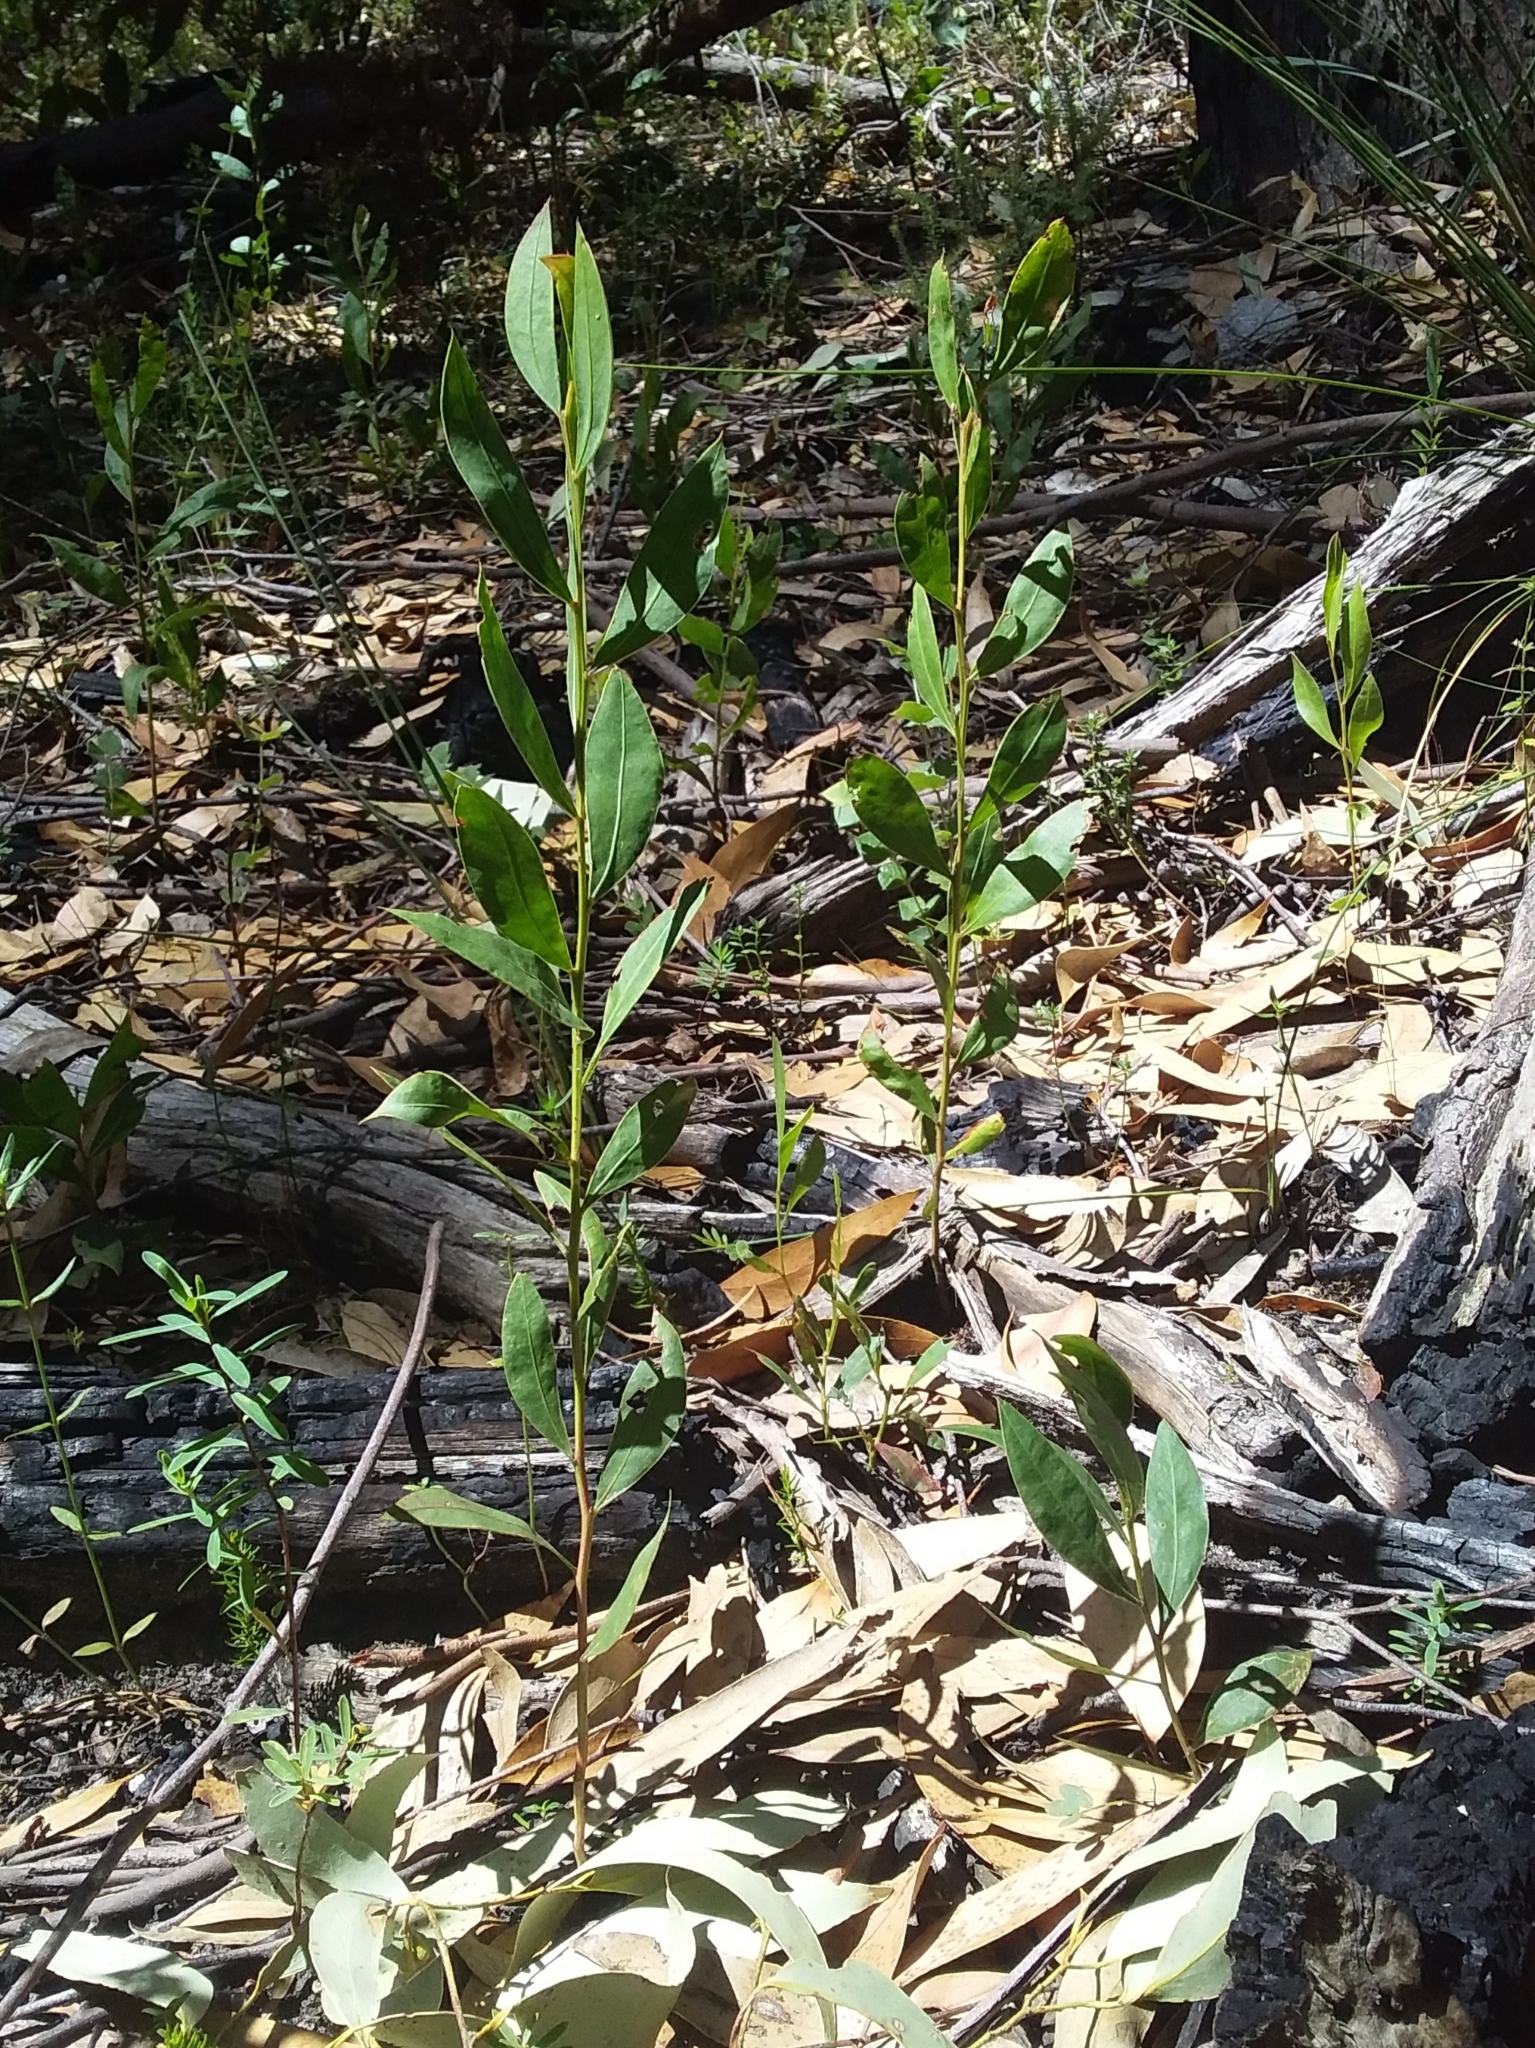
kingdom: Plantae
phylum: Tracheophyta
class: Magnoliopsida
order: Fabales
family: Fabaceae
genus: Acacia
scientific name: Acacia myrtifolia
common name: Myrtle wattle
